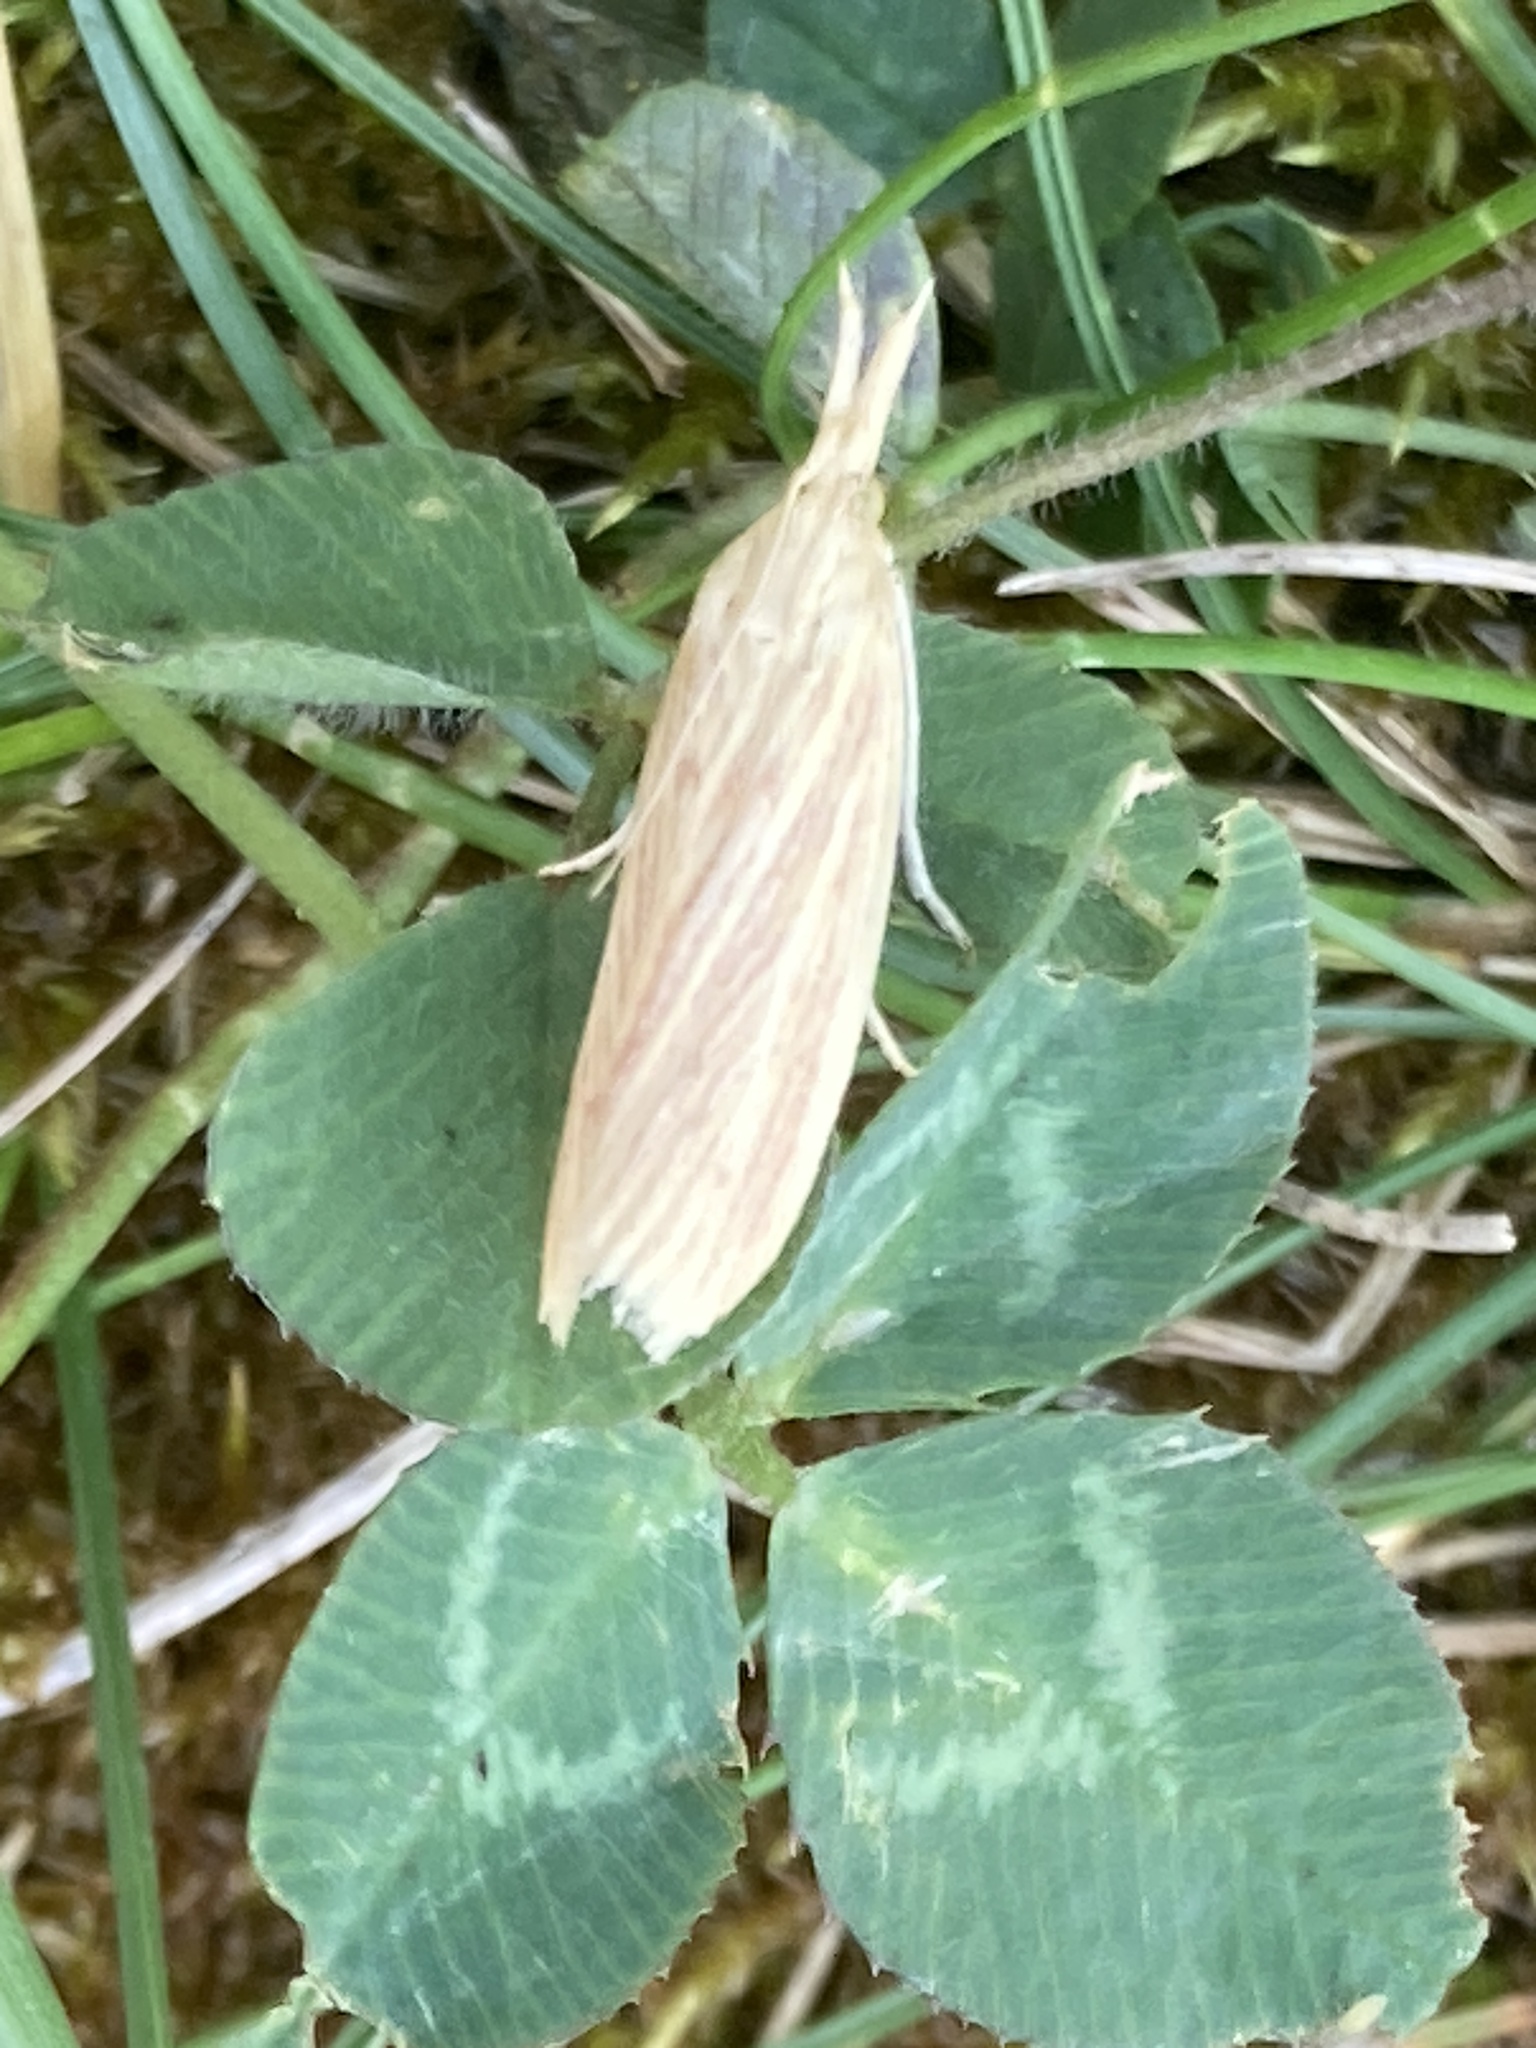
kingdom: Animalia
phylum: Arthropoda
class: Insecta
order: Lepidoptera
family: Pyralidae
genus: Ematheudes
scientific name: Ematheudes punctellus
